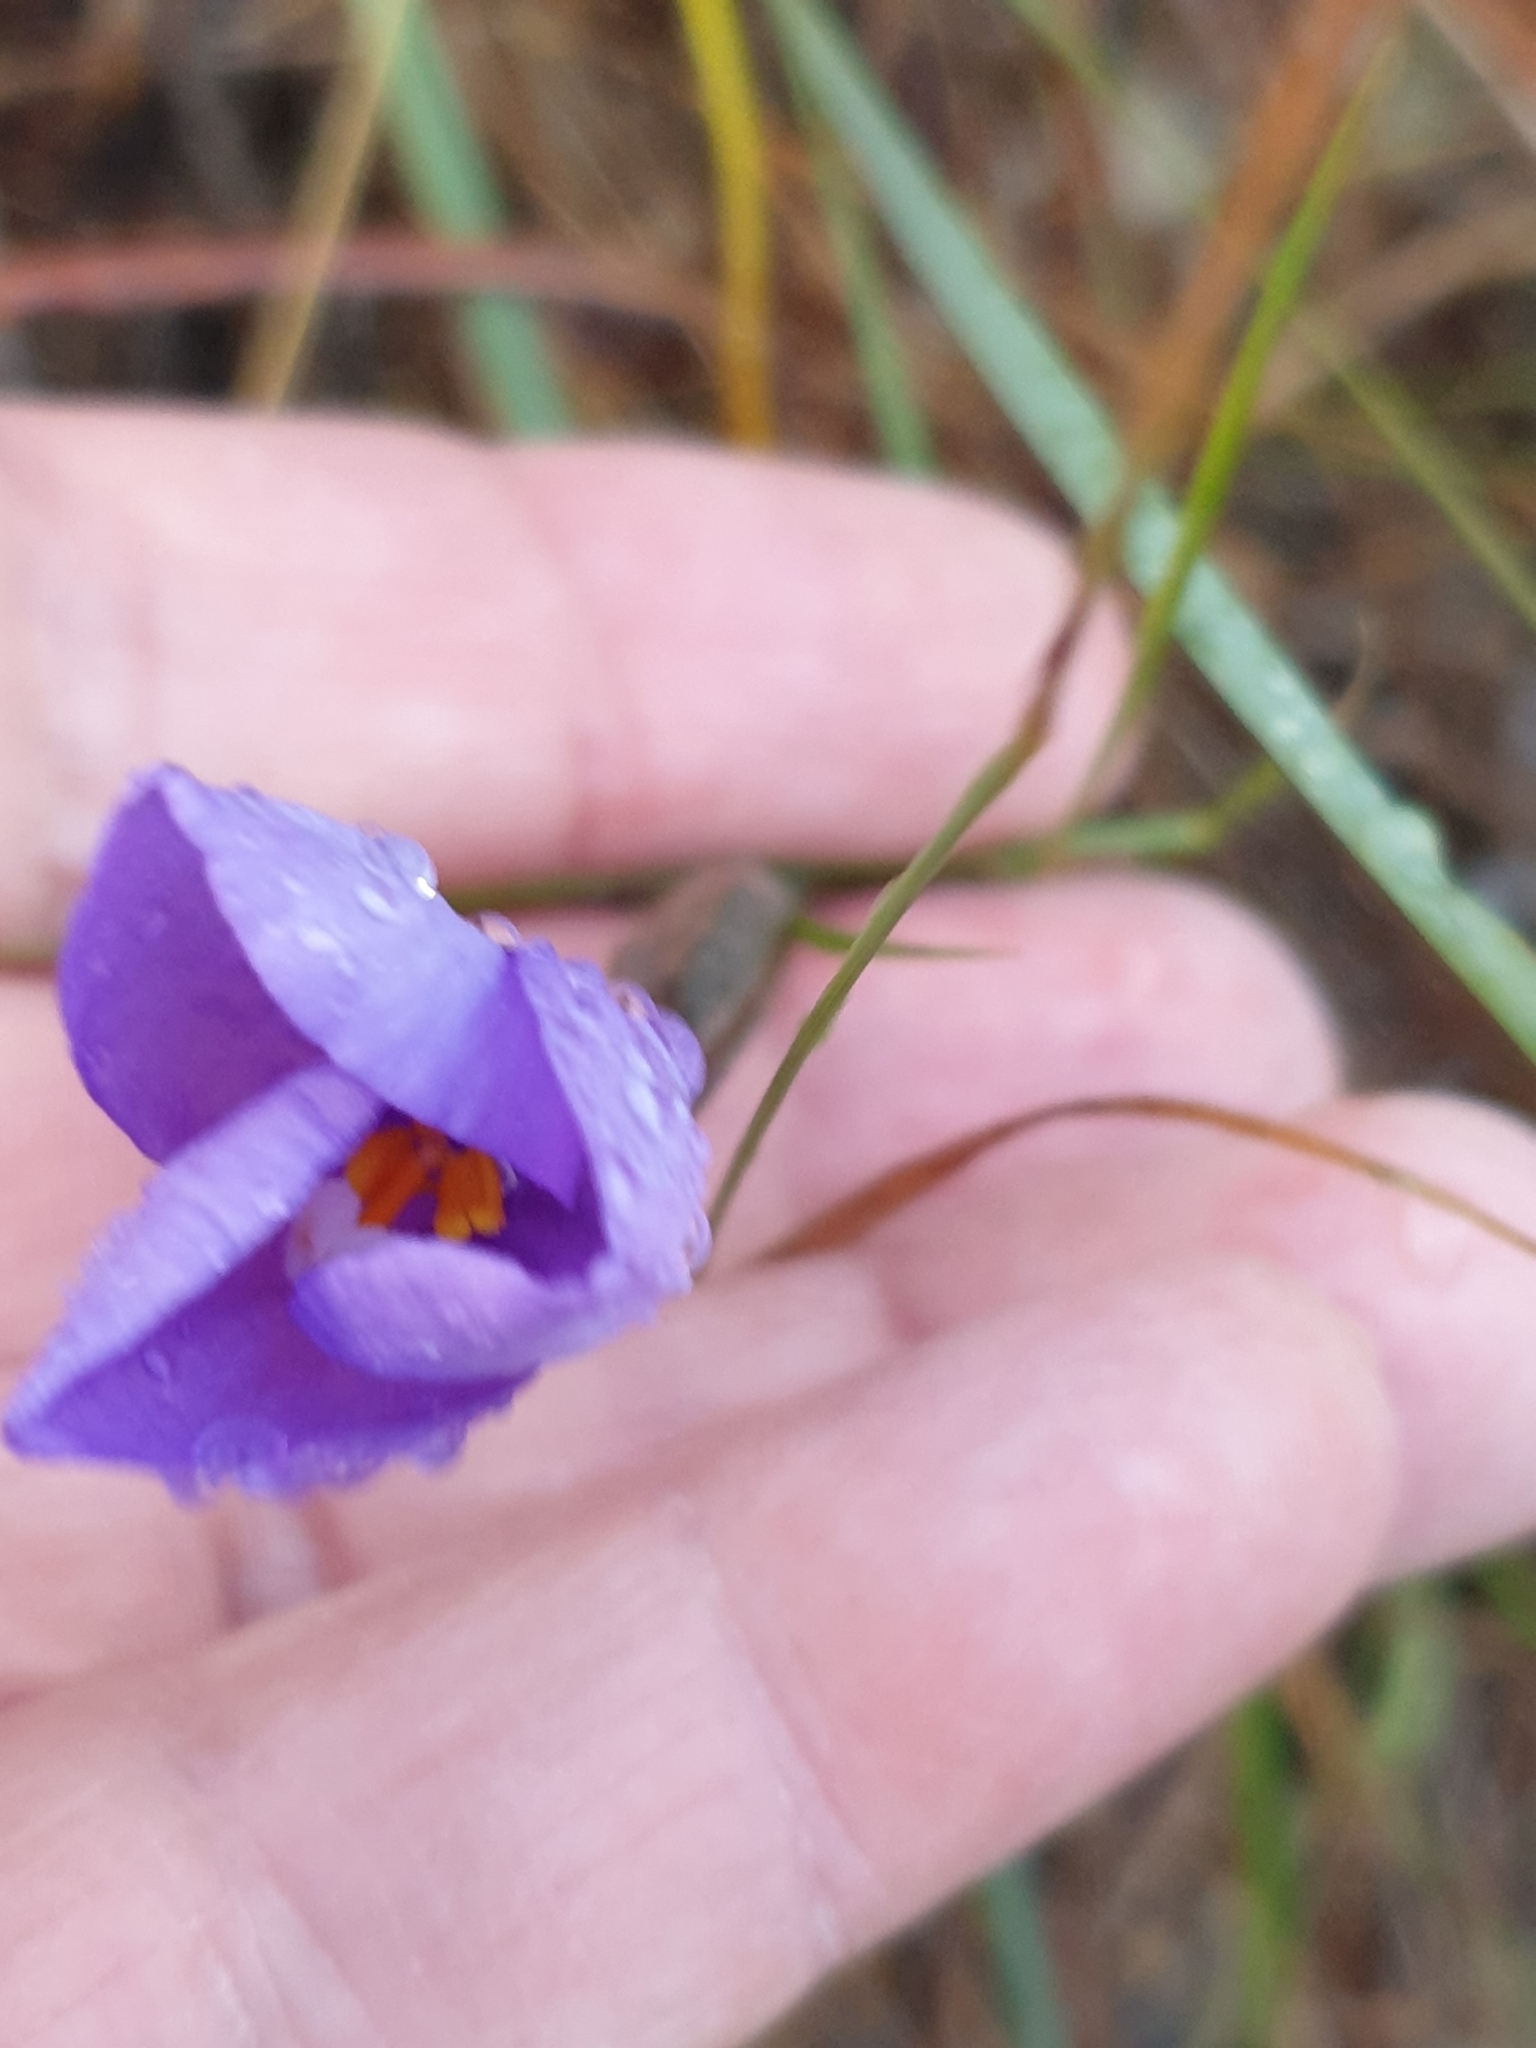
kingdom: Plantae
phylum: Tracheophyta
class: Liliopsida
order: Asparagales
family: Iridaceae
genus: Patersonia
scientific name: Patersonia sericea
